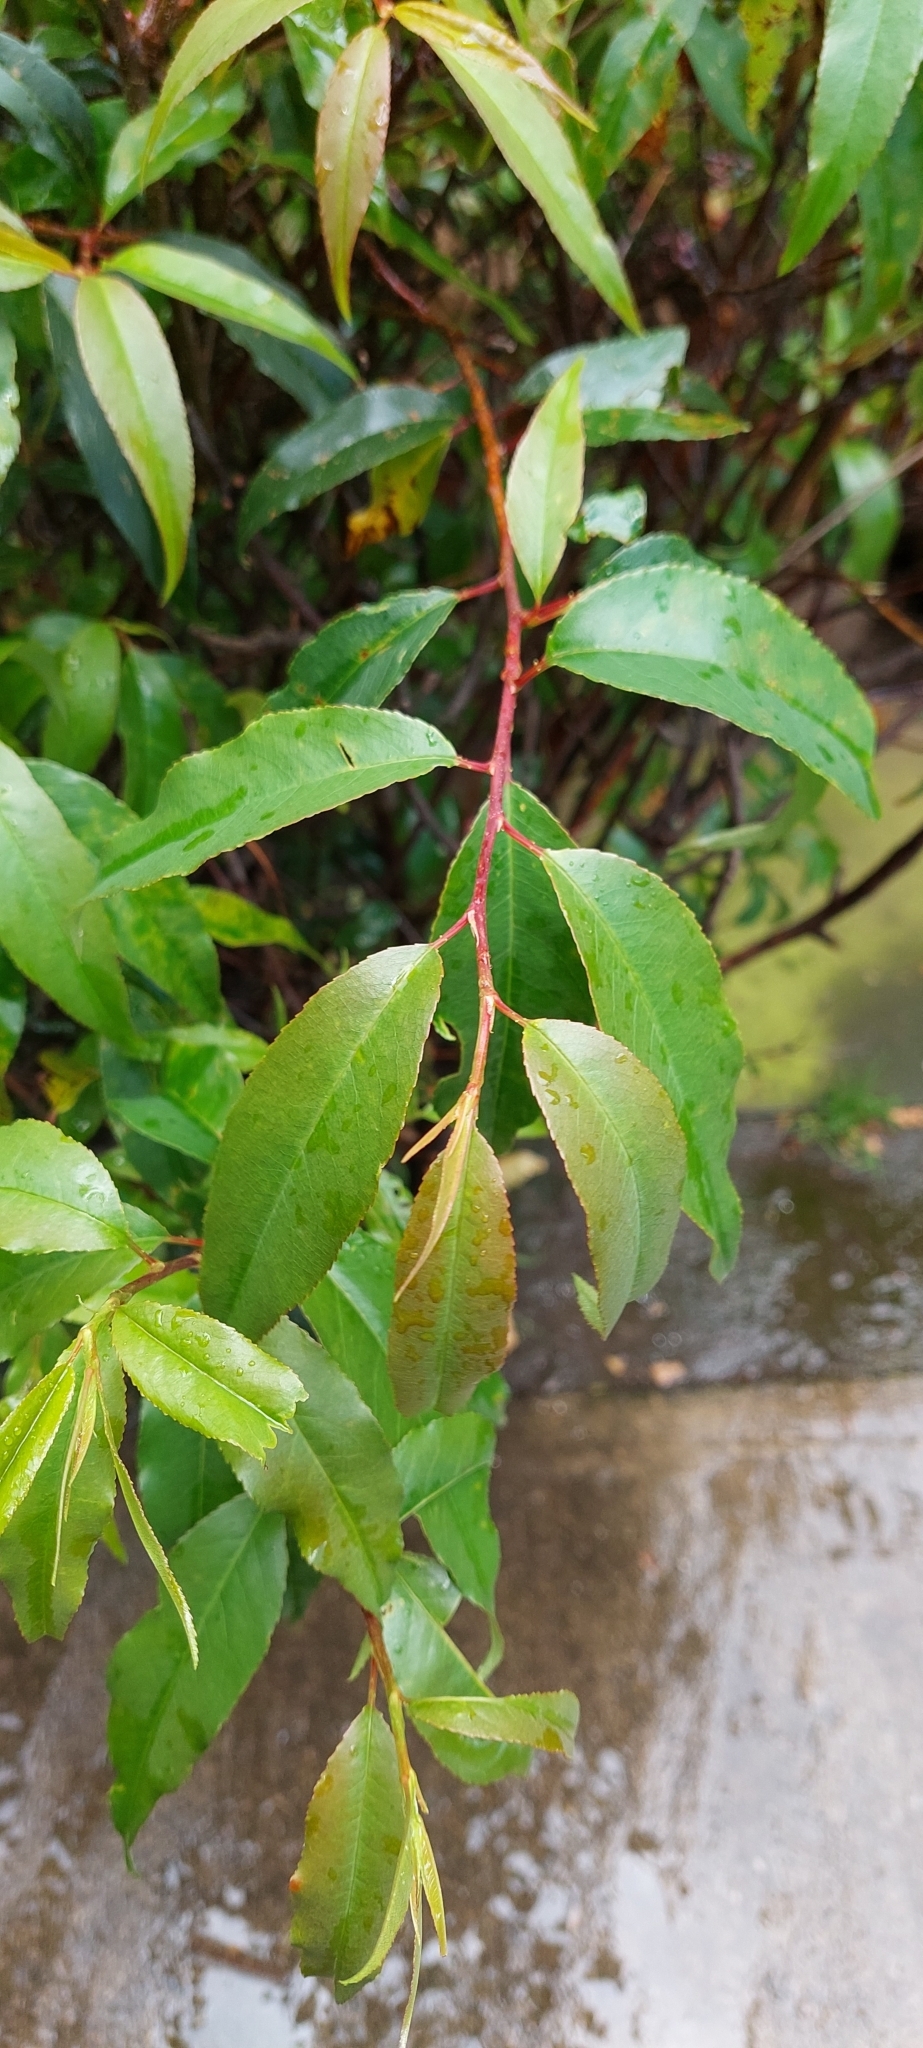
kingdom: Plantae
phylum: Tracheophyta
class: Magnoliopsida
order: Rosales
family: Rosaceae
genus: Prunus
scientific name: Prunus serotina
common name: Black cherry
